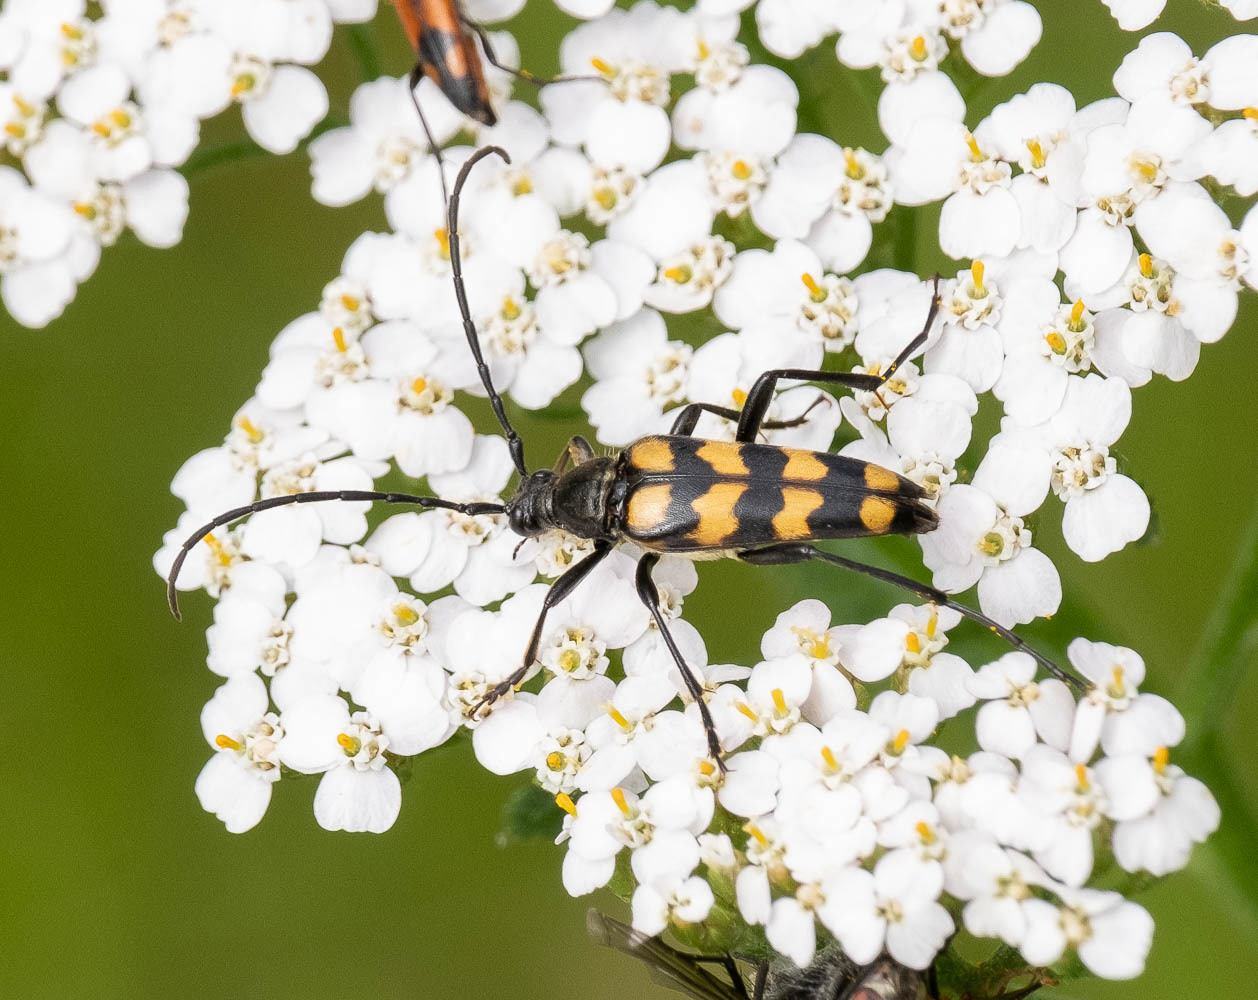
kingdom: Animalia
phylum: Arthropoda
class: Insecta
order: Coleoptera
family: Cerambycidae
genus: Leptura
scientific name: Leptura quadrifasciata
